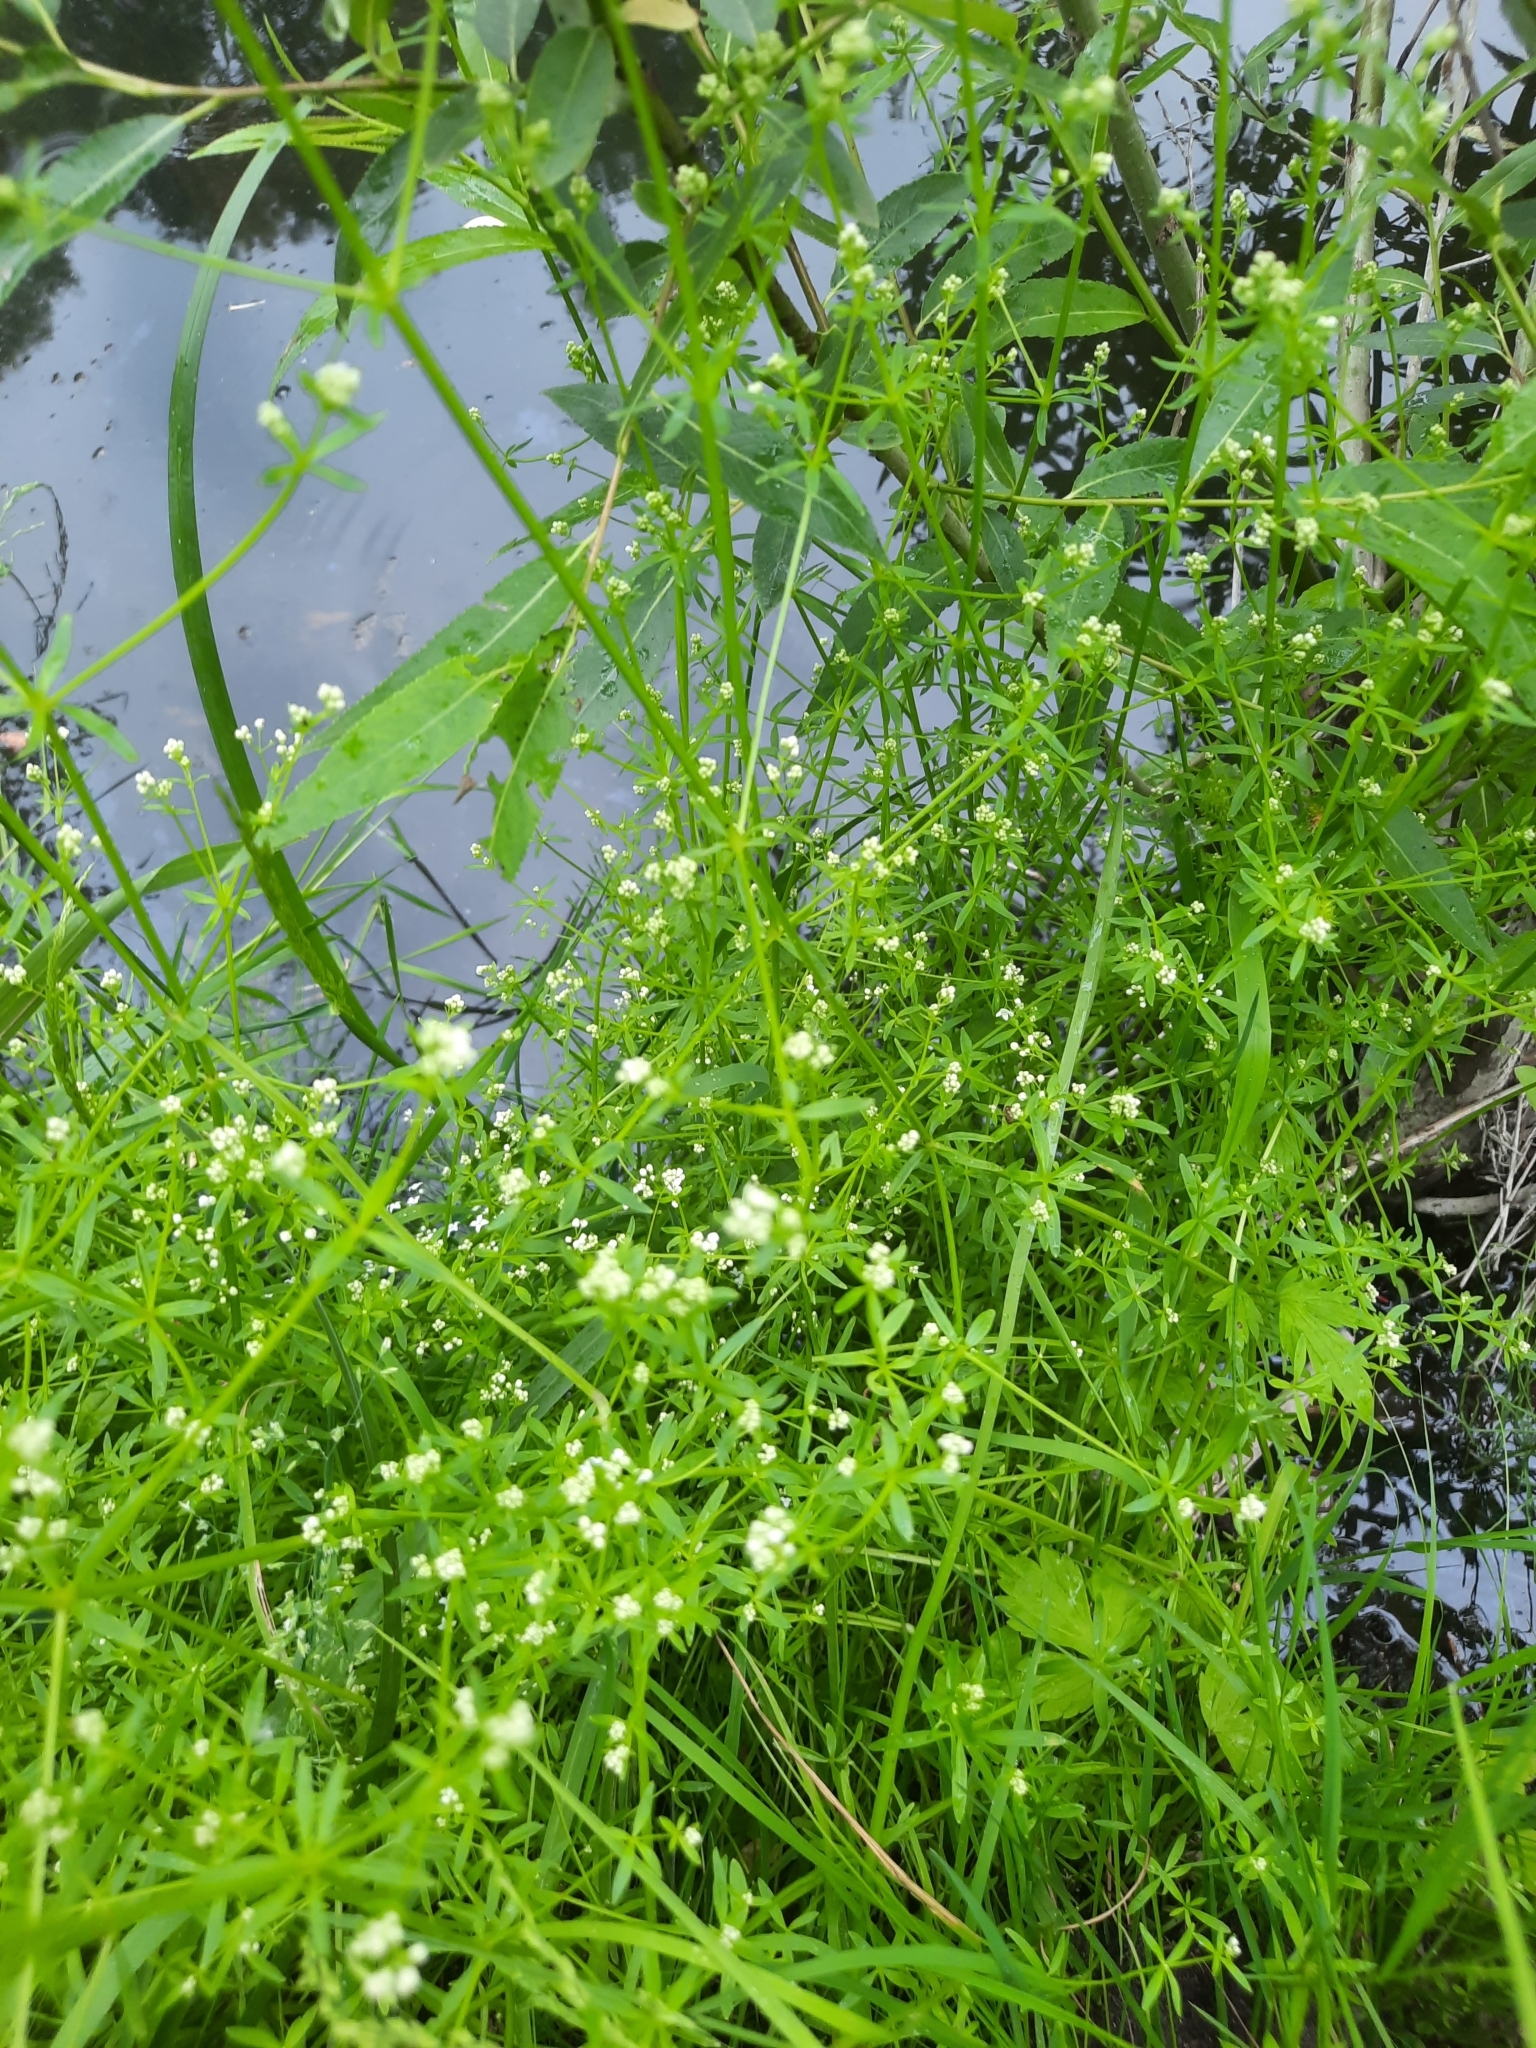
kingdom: Plantae
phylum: Tracheophyta
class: Magnoliopsida
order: Gentianales
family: Rubiaceae
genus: Galium
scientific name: Galium palustre
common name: Common marsh-bedstraw
